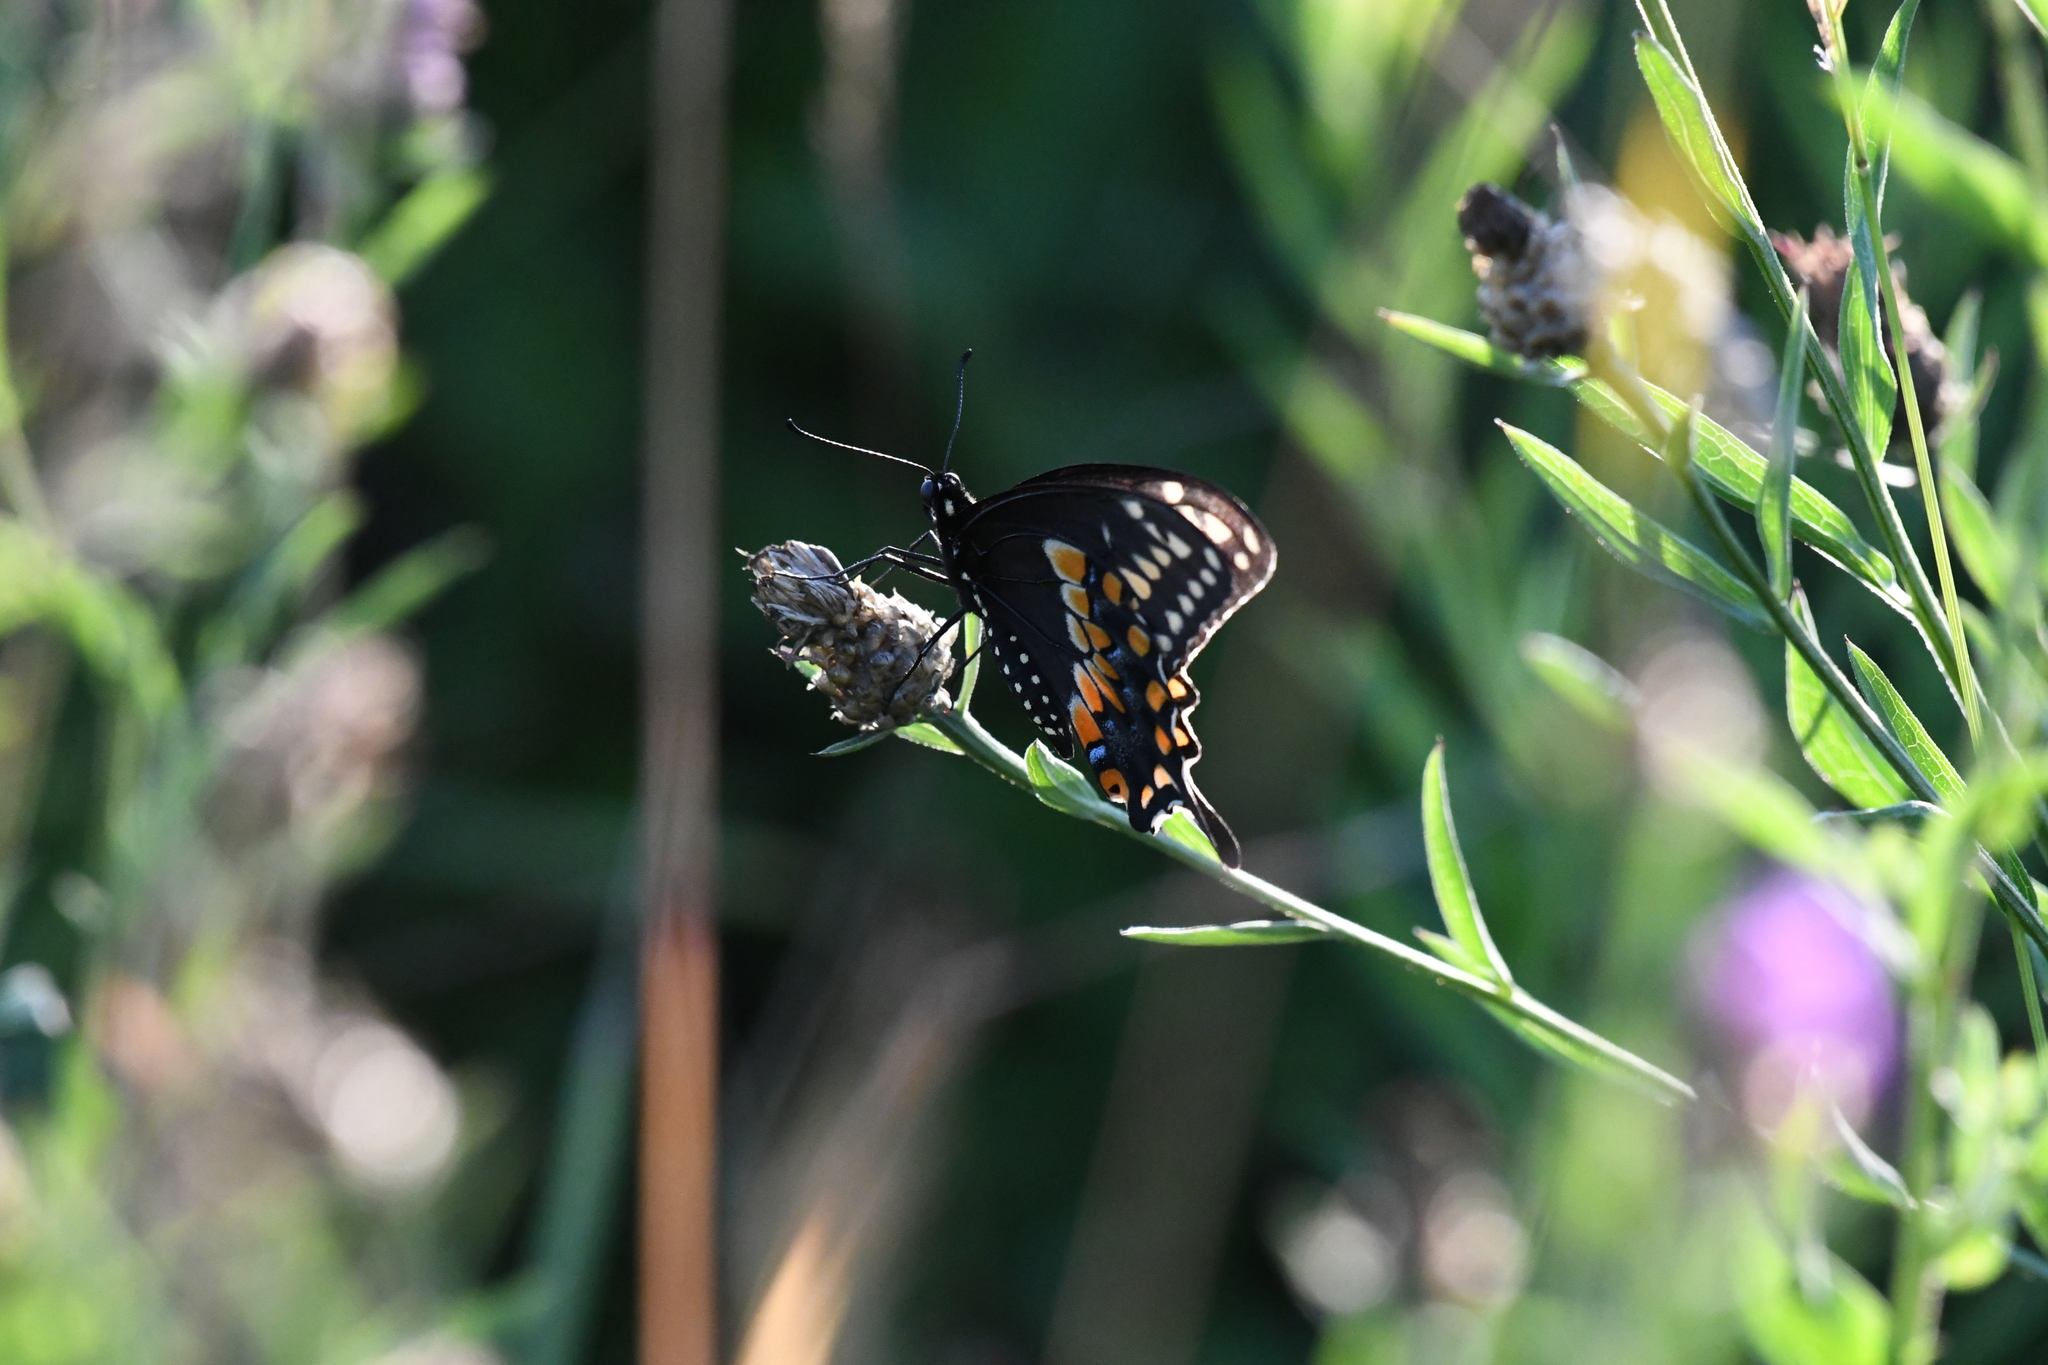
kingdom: Animalia
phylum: Arthropoda
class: Insecta
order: Lepidoptera
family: Papilionidae
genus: Papilio
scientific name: Papilio polyxenes
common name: Black swallowtail
